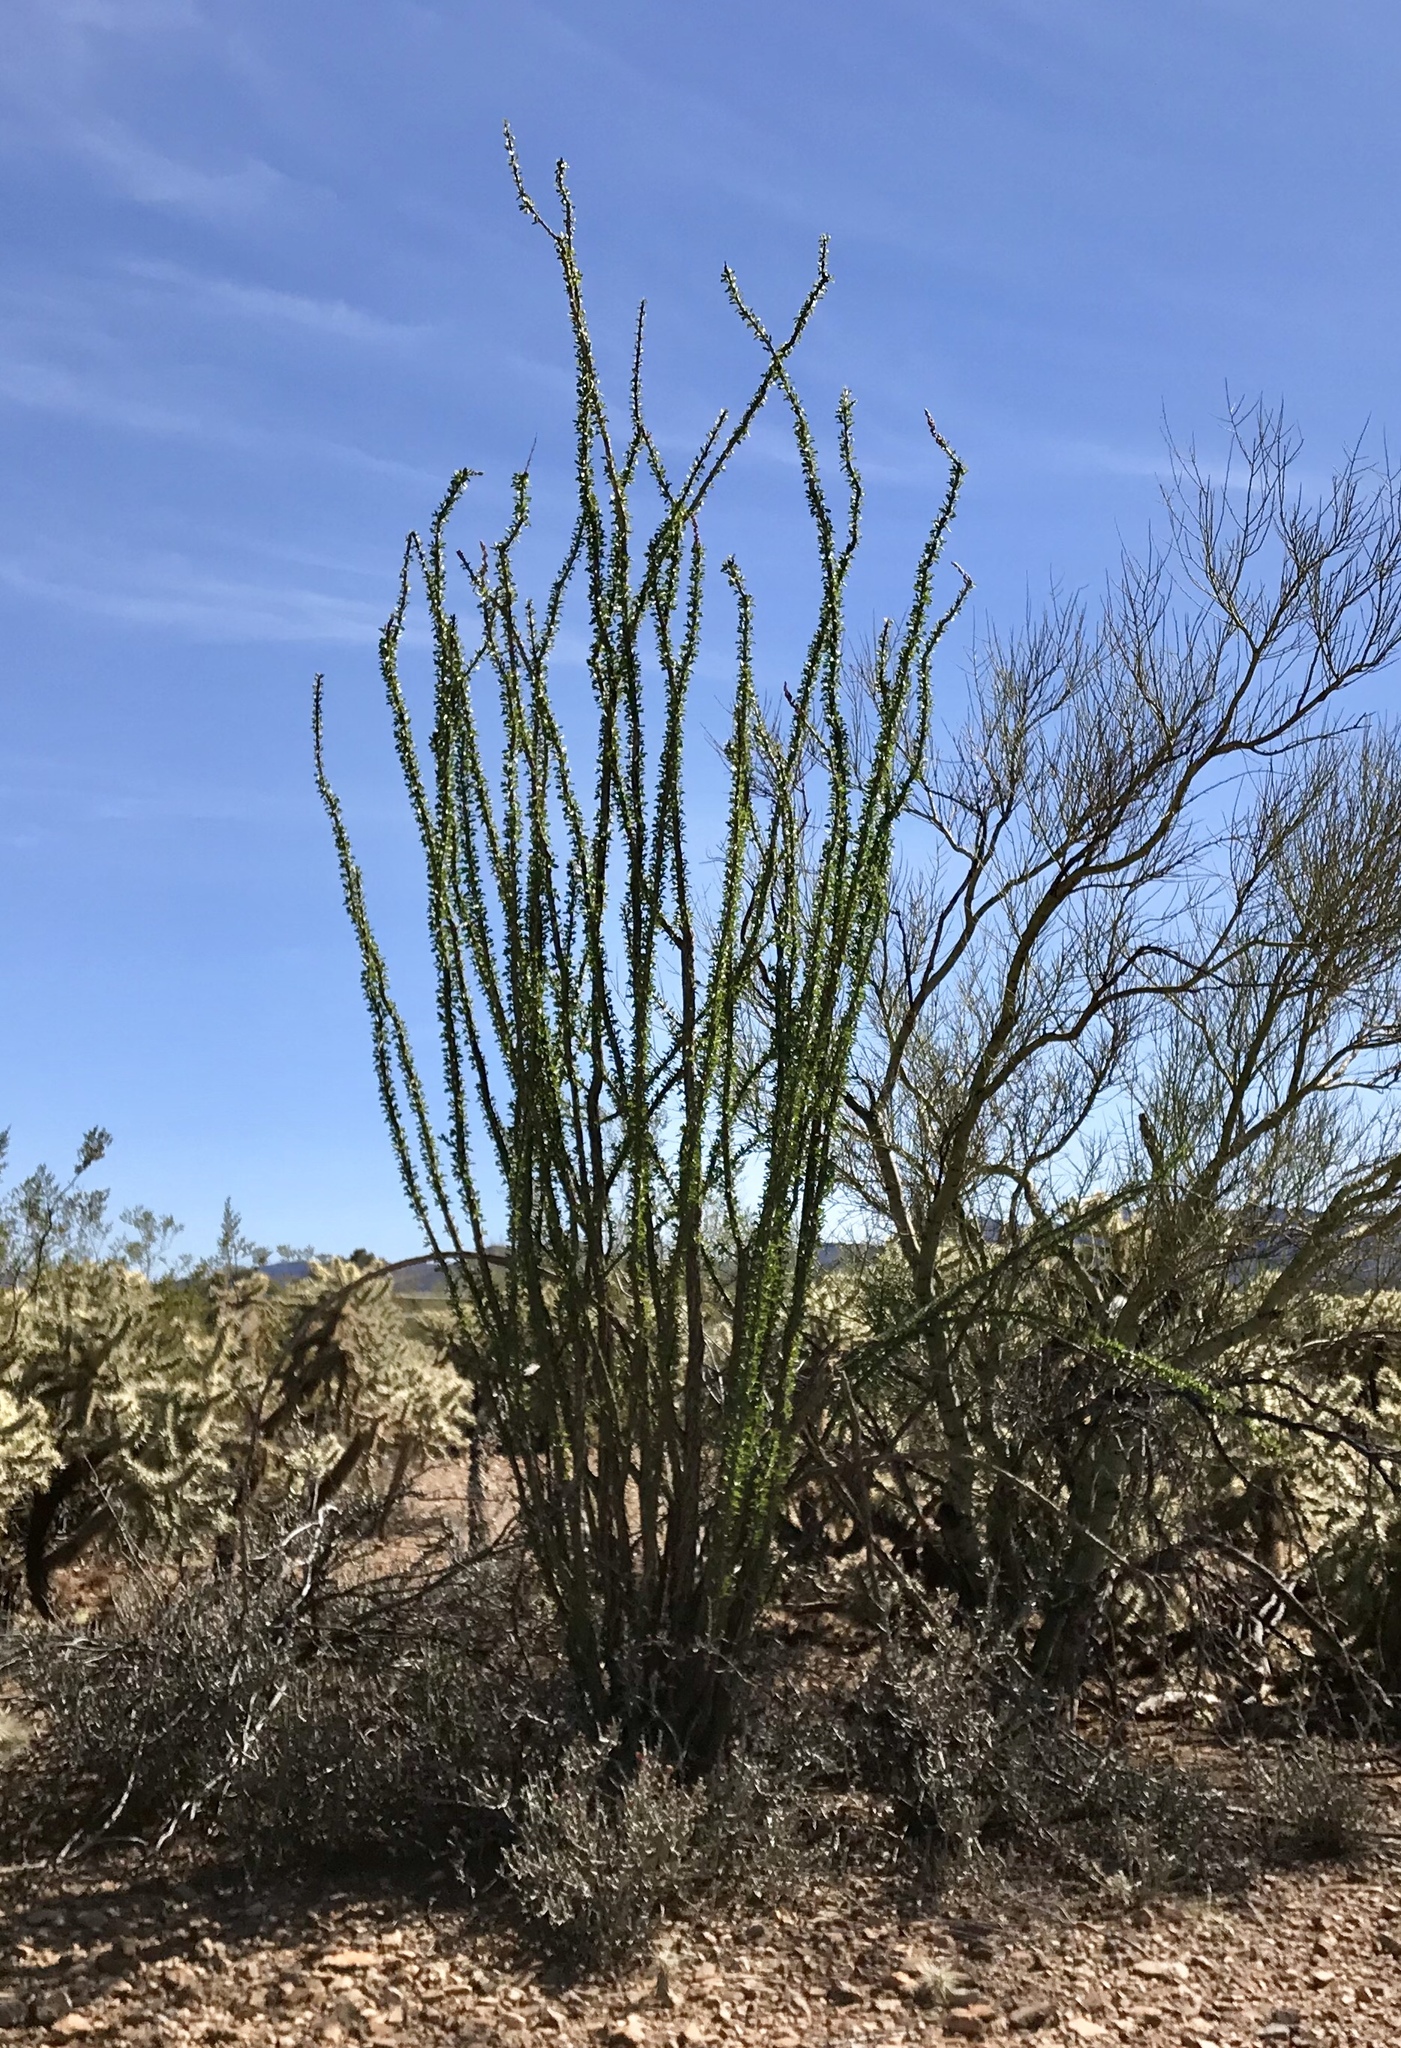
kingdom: Plantae
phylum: Tracheophyta
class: Magnoliopsida
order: Ericales
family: Fouquieriaceae
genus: Fouquieria
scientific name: Fouquieria splendens
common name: Vine-cactus
